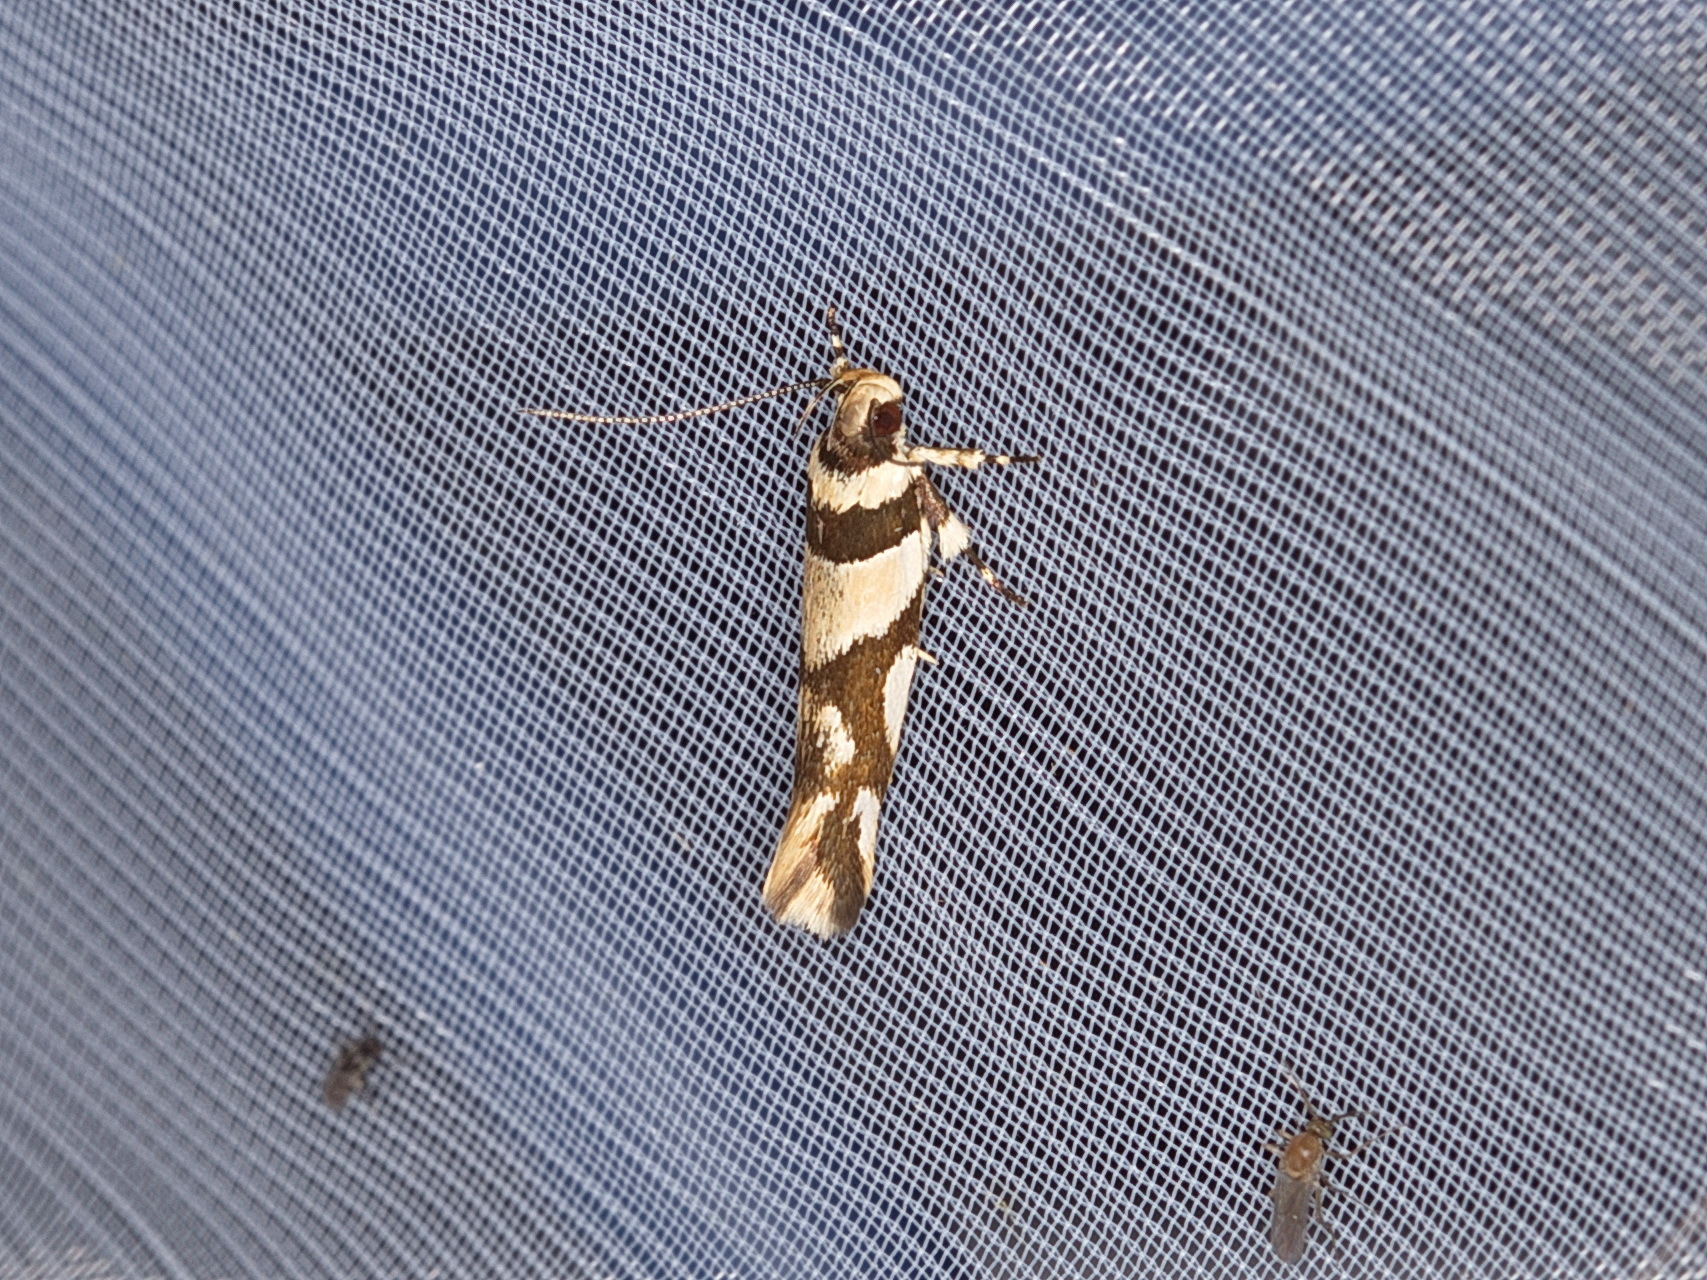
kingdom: Animalia
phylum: Arthropoda
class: Insecta
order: Lepidoptera
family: Cosmopterigidae
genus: Macrobathra
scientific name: Macrobathra desmotoma
